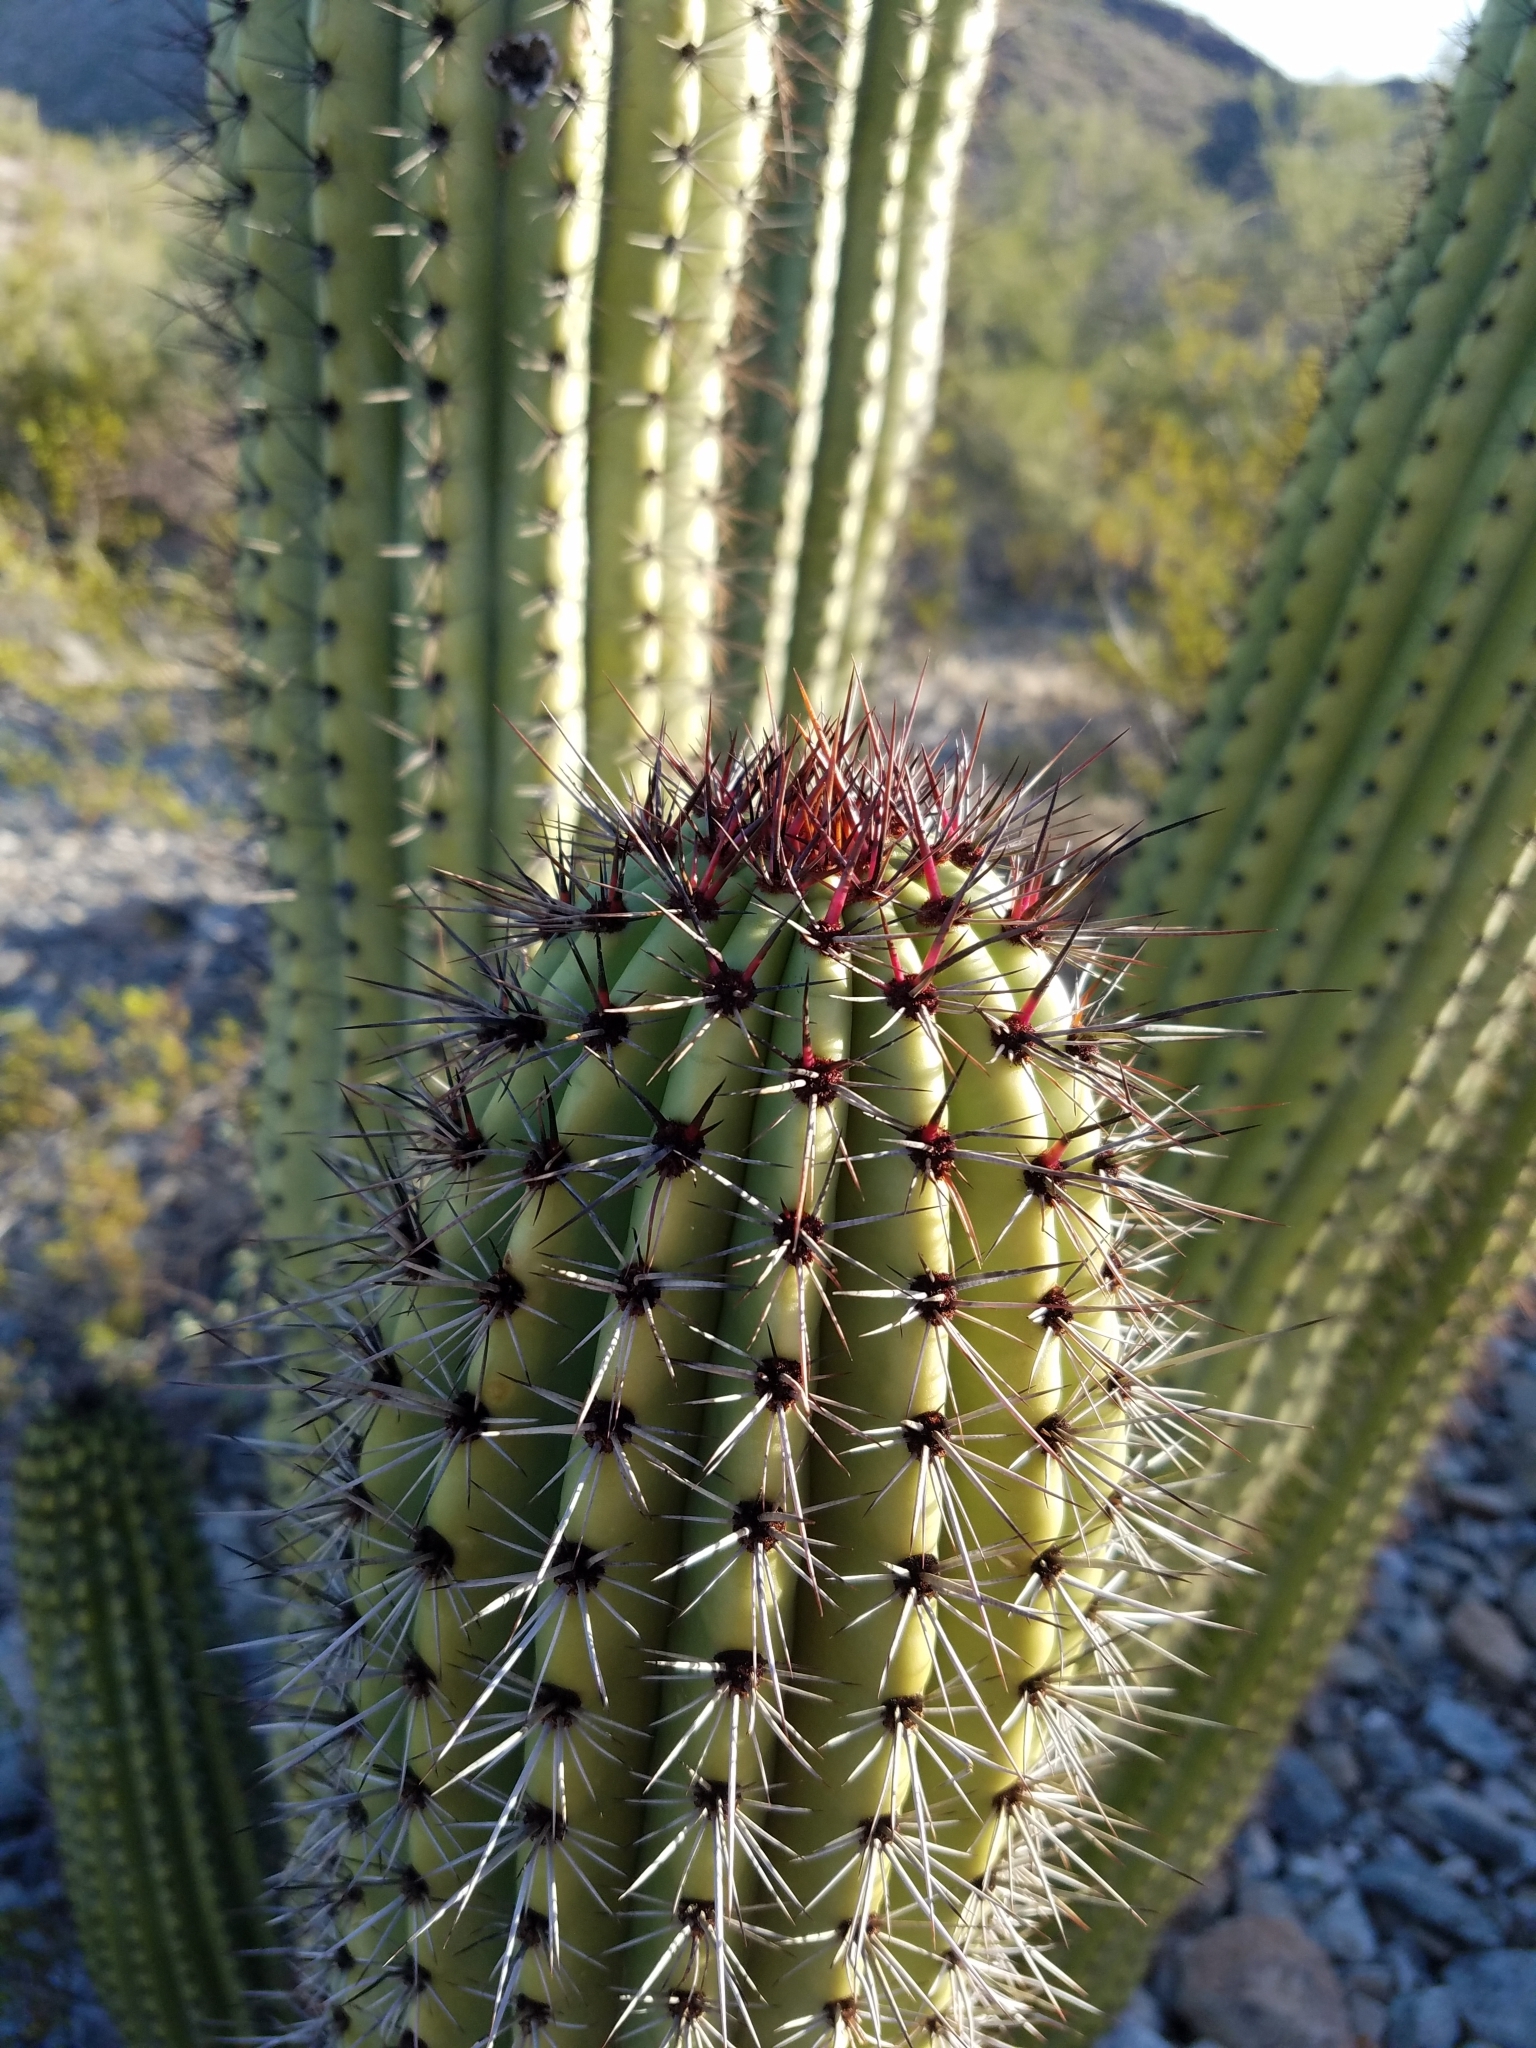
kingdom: Plantae
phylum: Tracheophyta
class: Magnoliopsida
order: Caryophyllales
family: Cactaceae
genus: Stenocereus
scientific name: Stenocereus thurberi
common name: Organ pipe cactus
